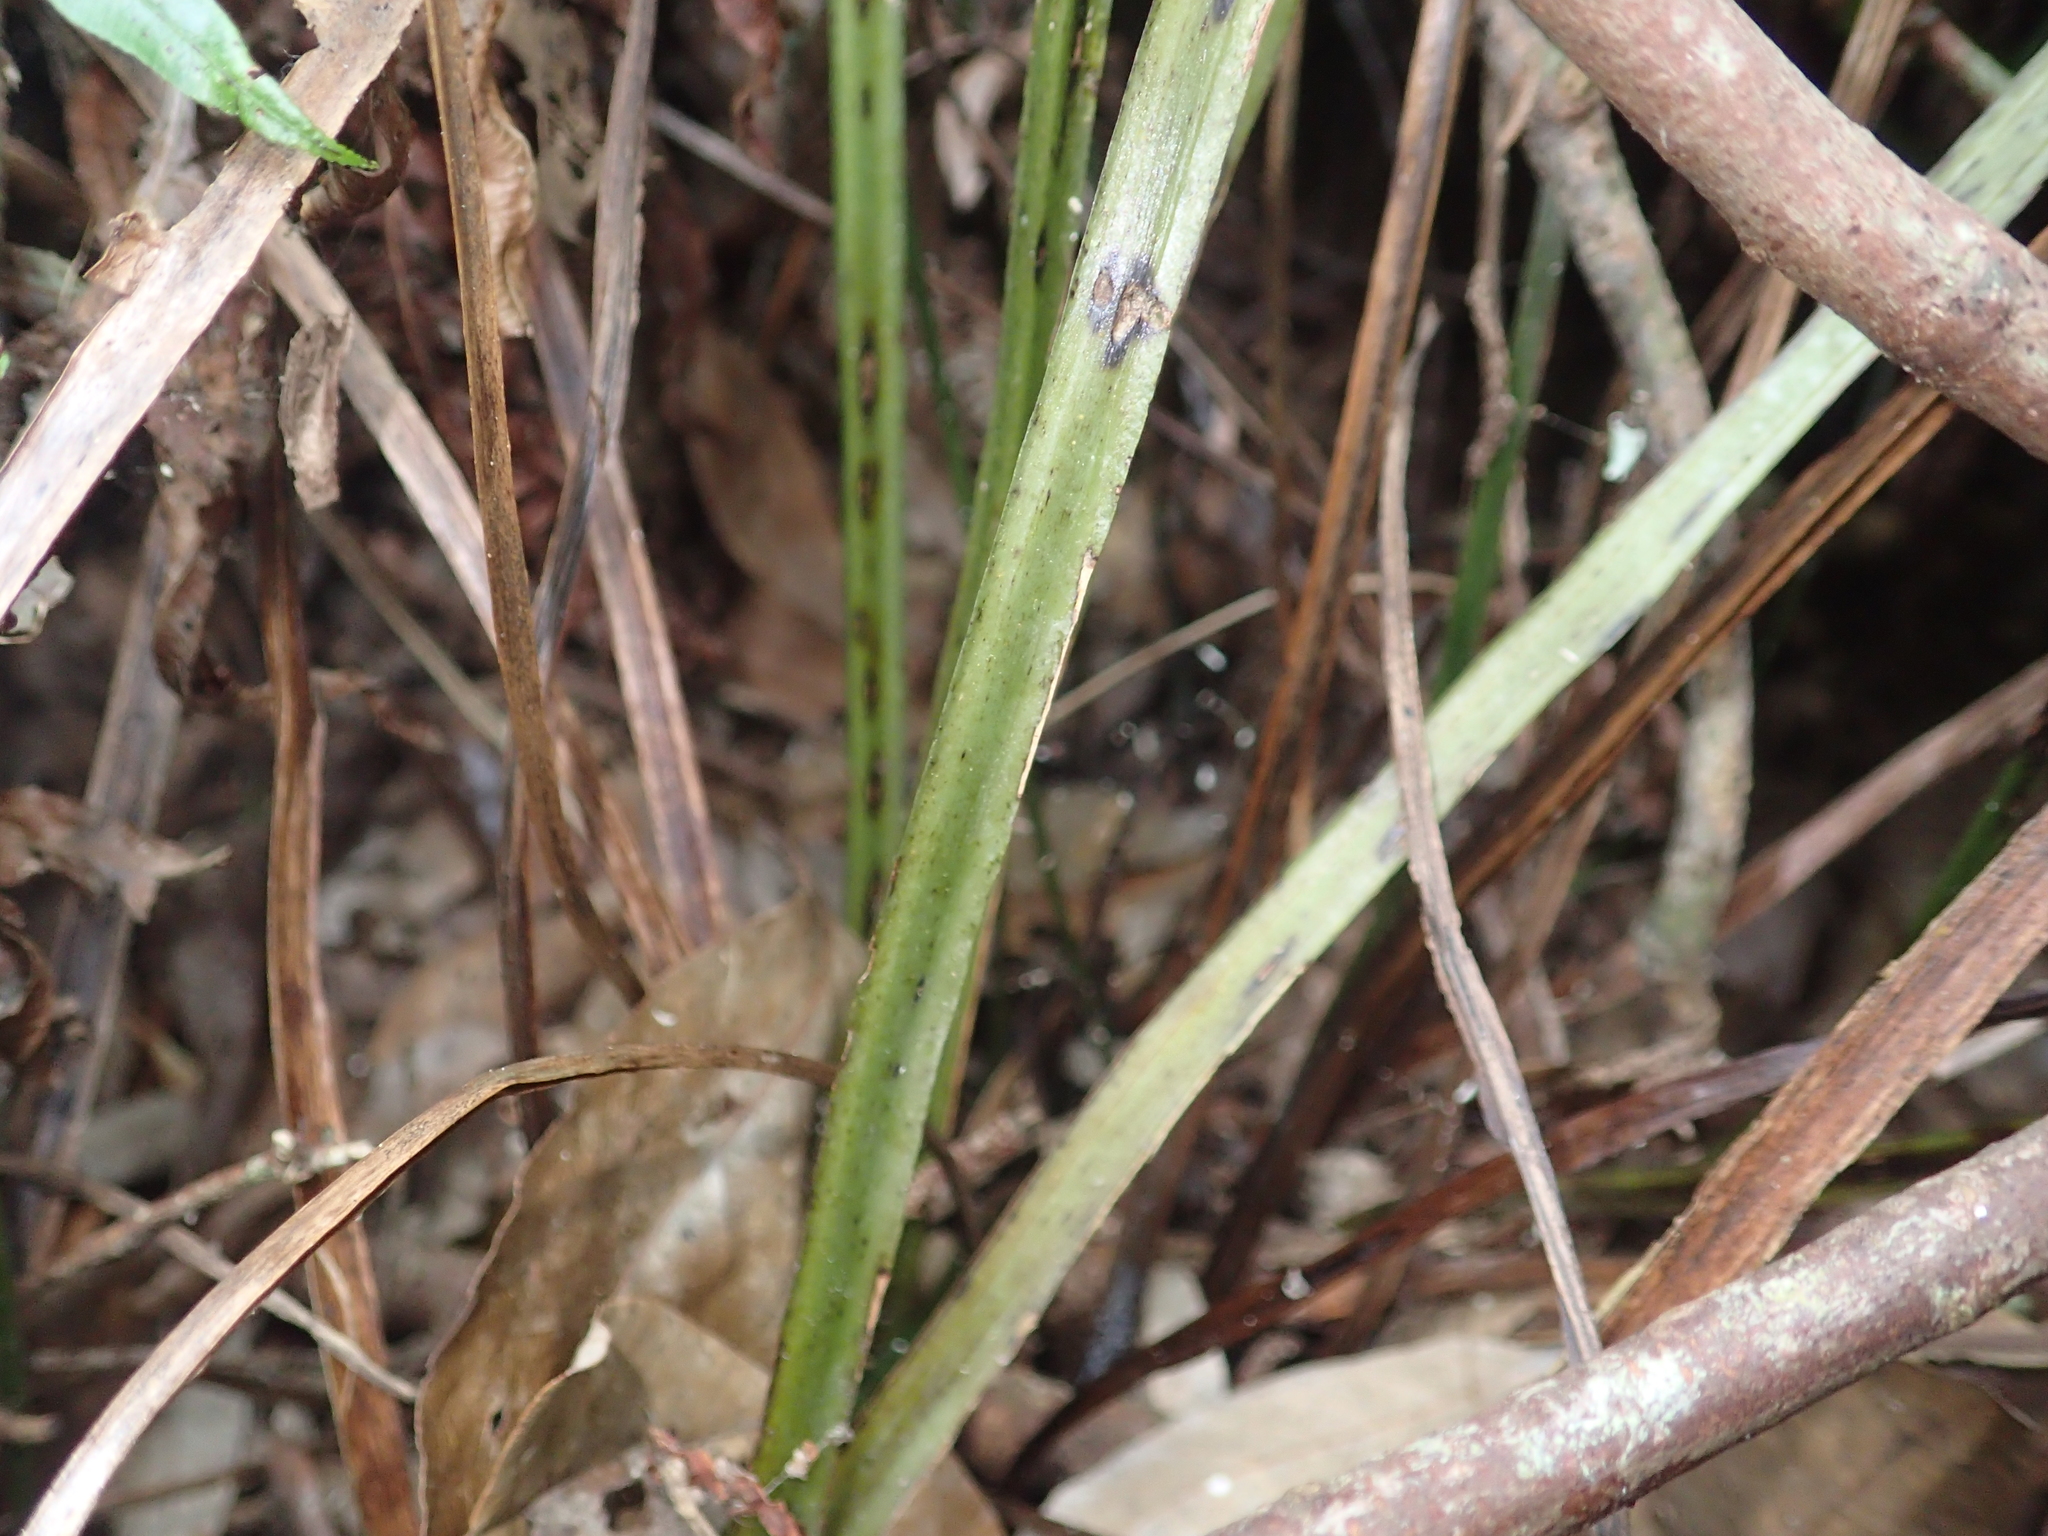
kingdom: Plantae
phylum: Tracheophyta
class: Polypodiopsida
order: Cyatheales
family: Plagiogyriaceae
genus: Plagiogyria
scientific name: Plagiogyria falcata
